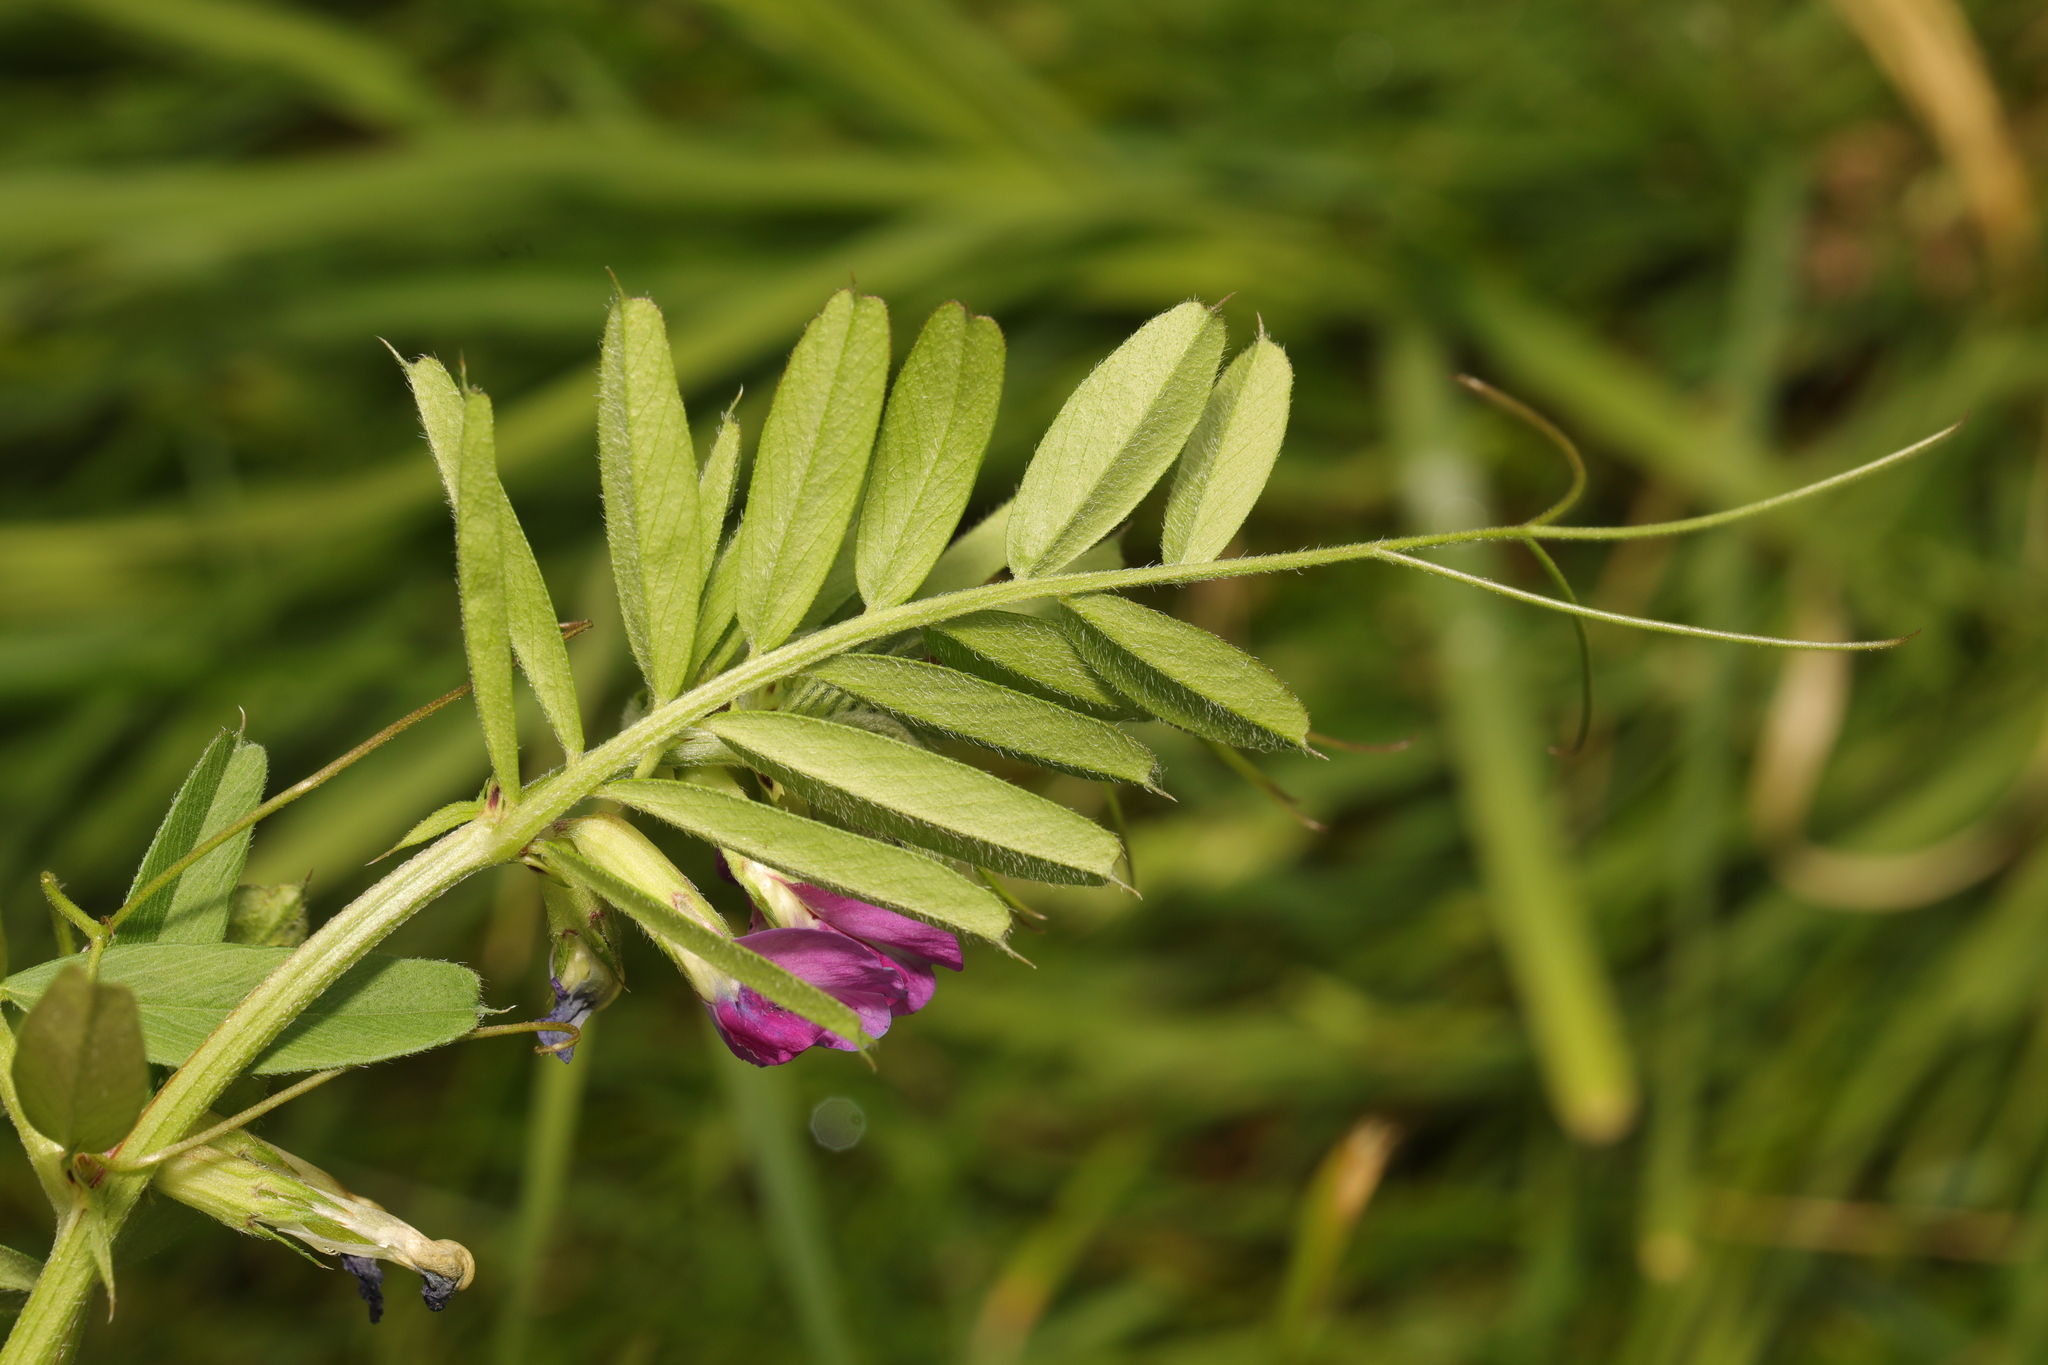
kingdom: Plantae
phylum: Tracheophyta
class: Magnoliopsida
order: Fabales
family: Fabaceae
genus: Vicia
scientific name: Vicia sativa
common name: Garden vetch
